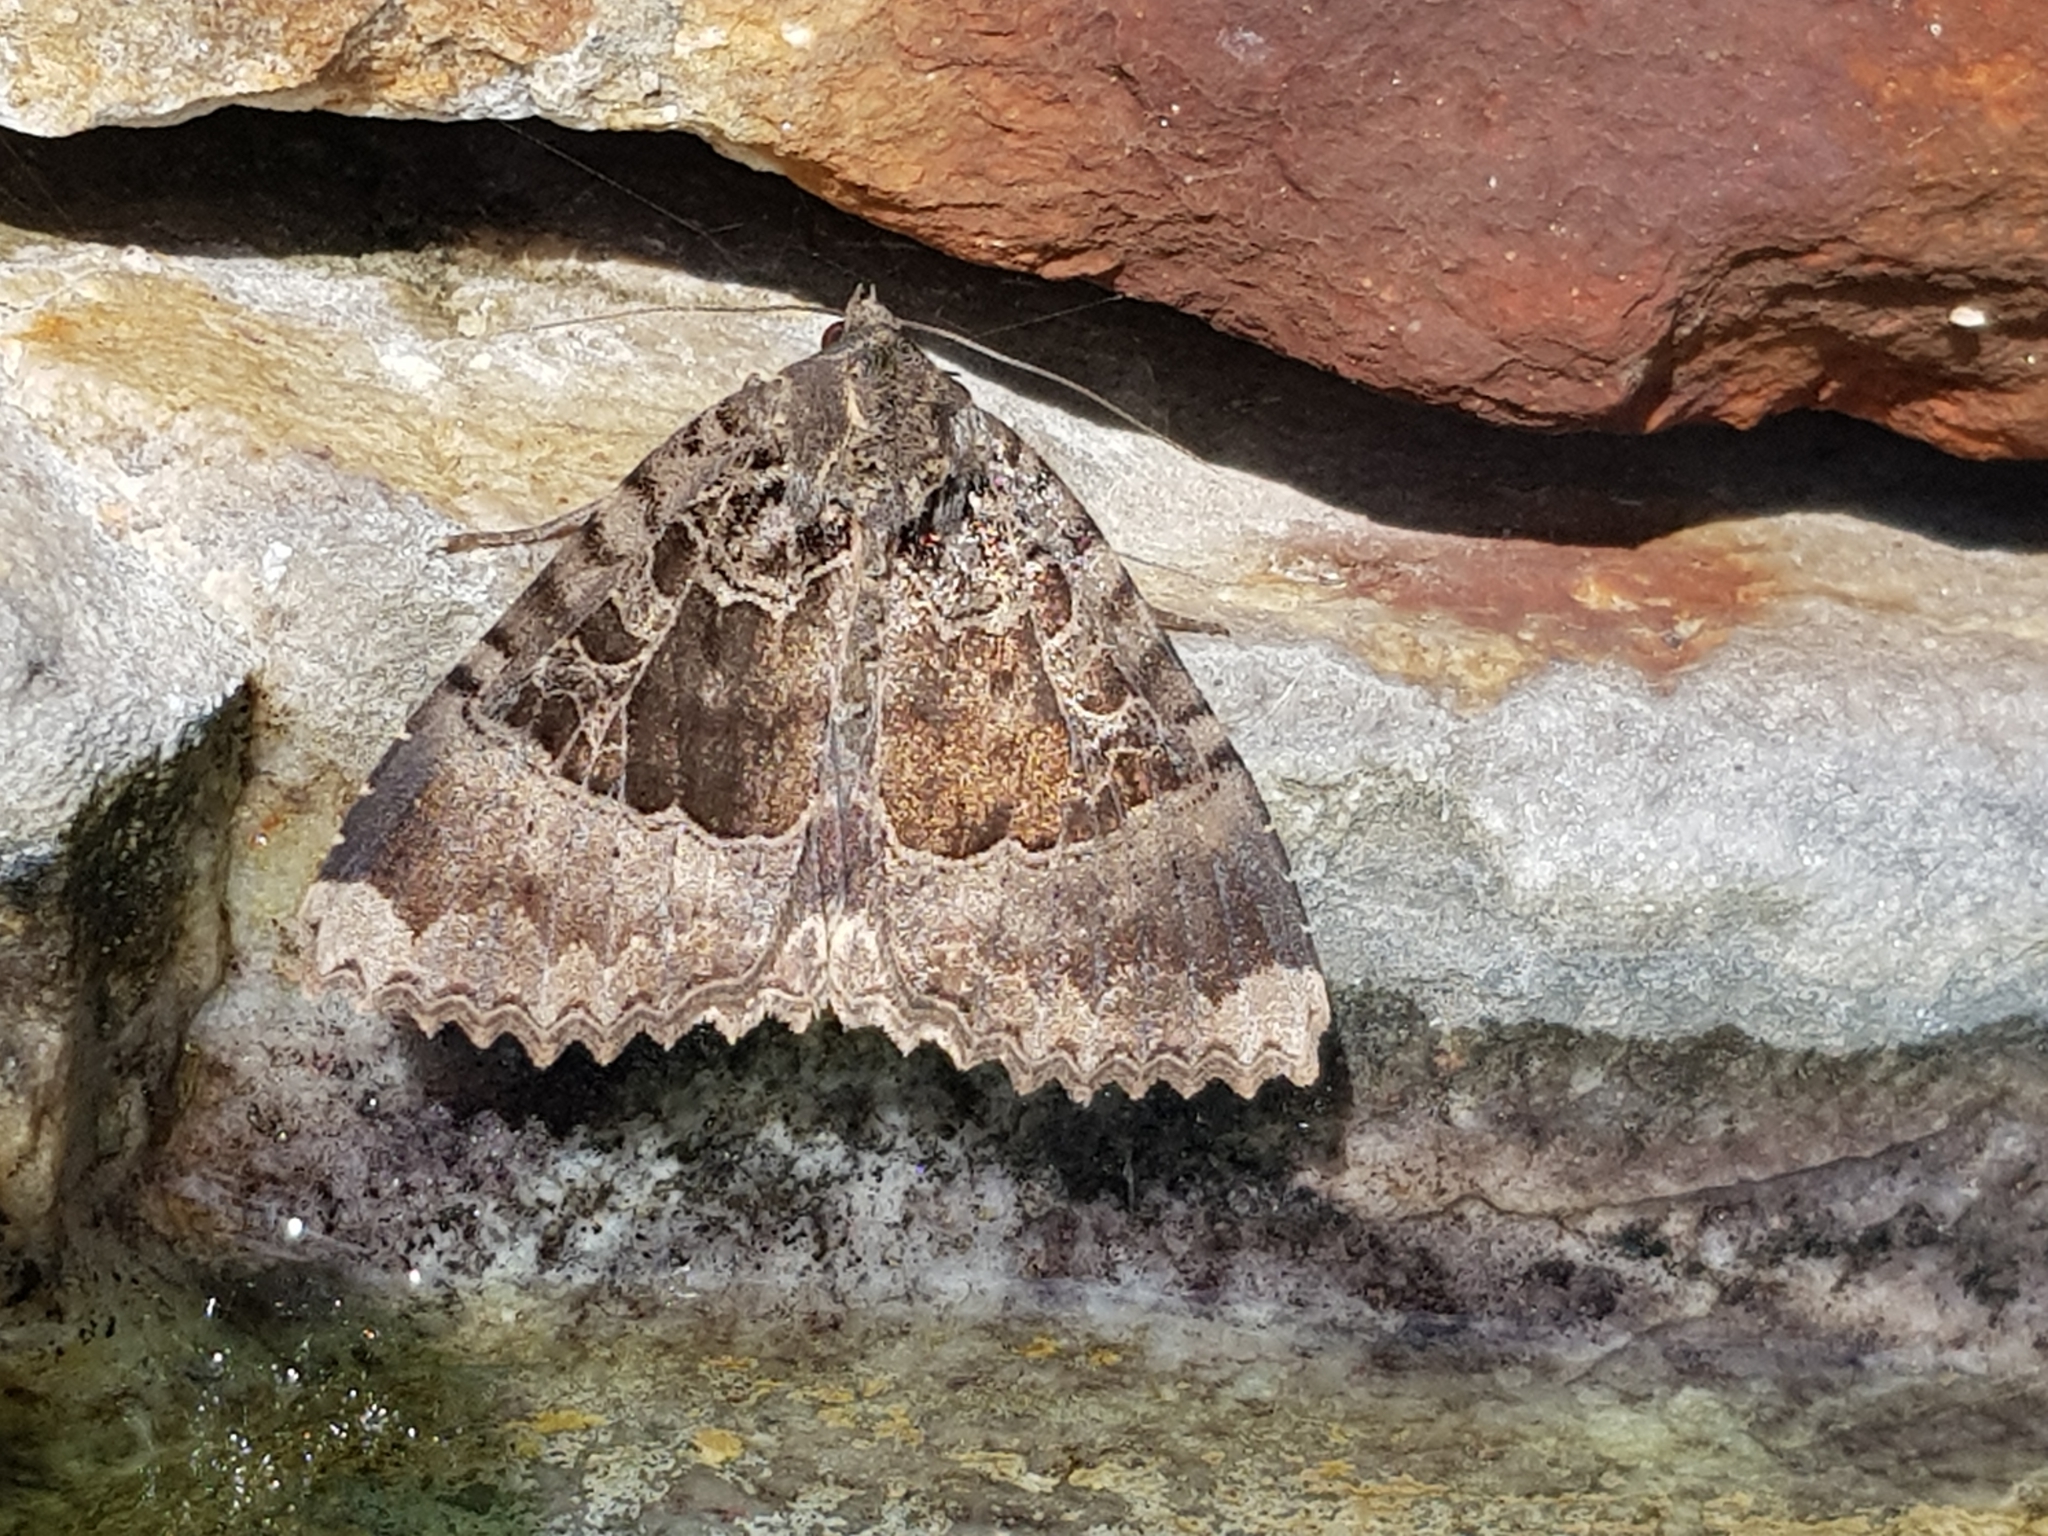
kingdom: Animalia
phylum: Arthropoda
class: Insecta
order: Lepidoptera
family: Noctuidae
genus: Mormo
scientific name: Mormo maura
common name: Old lady
